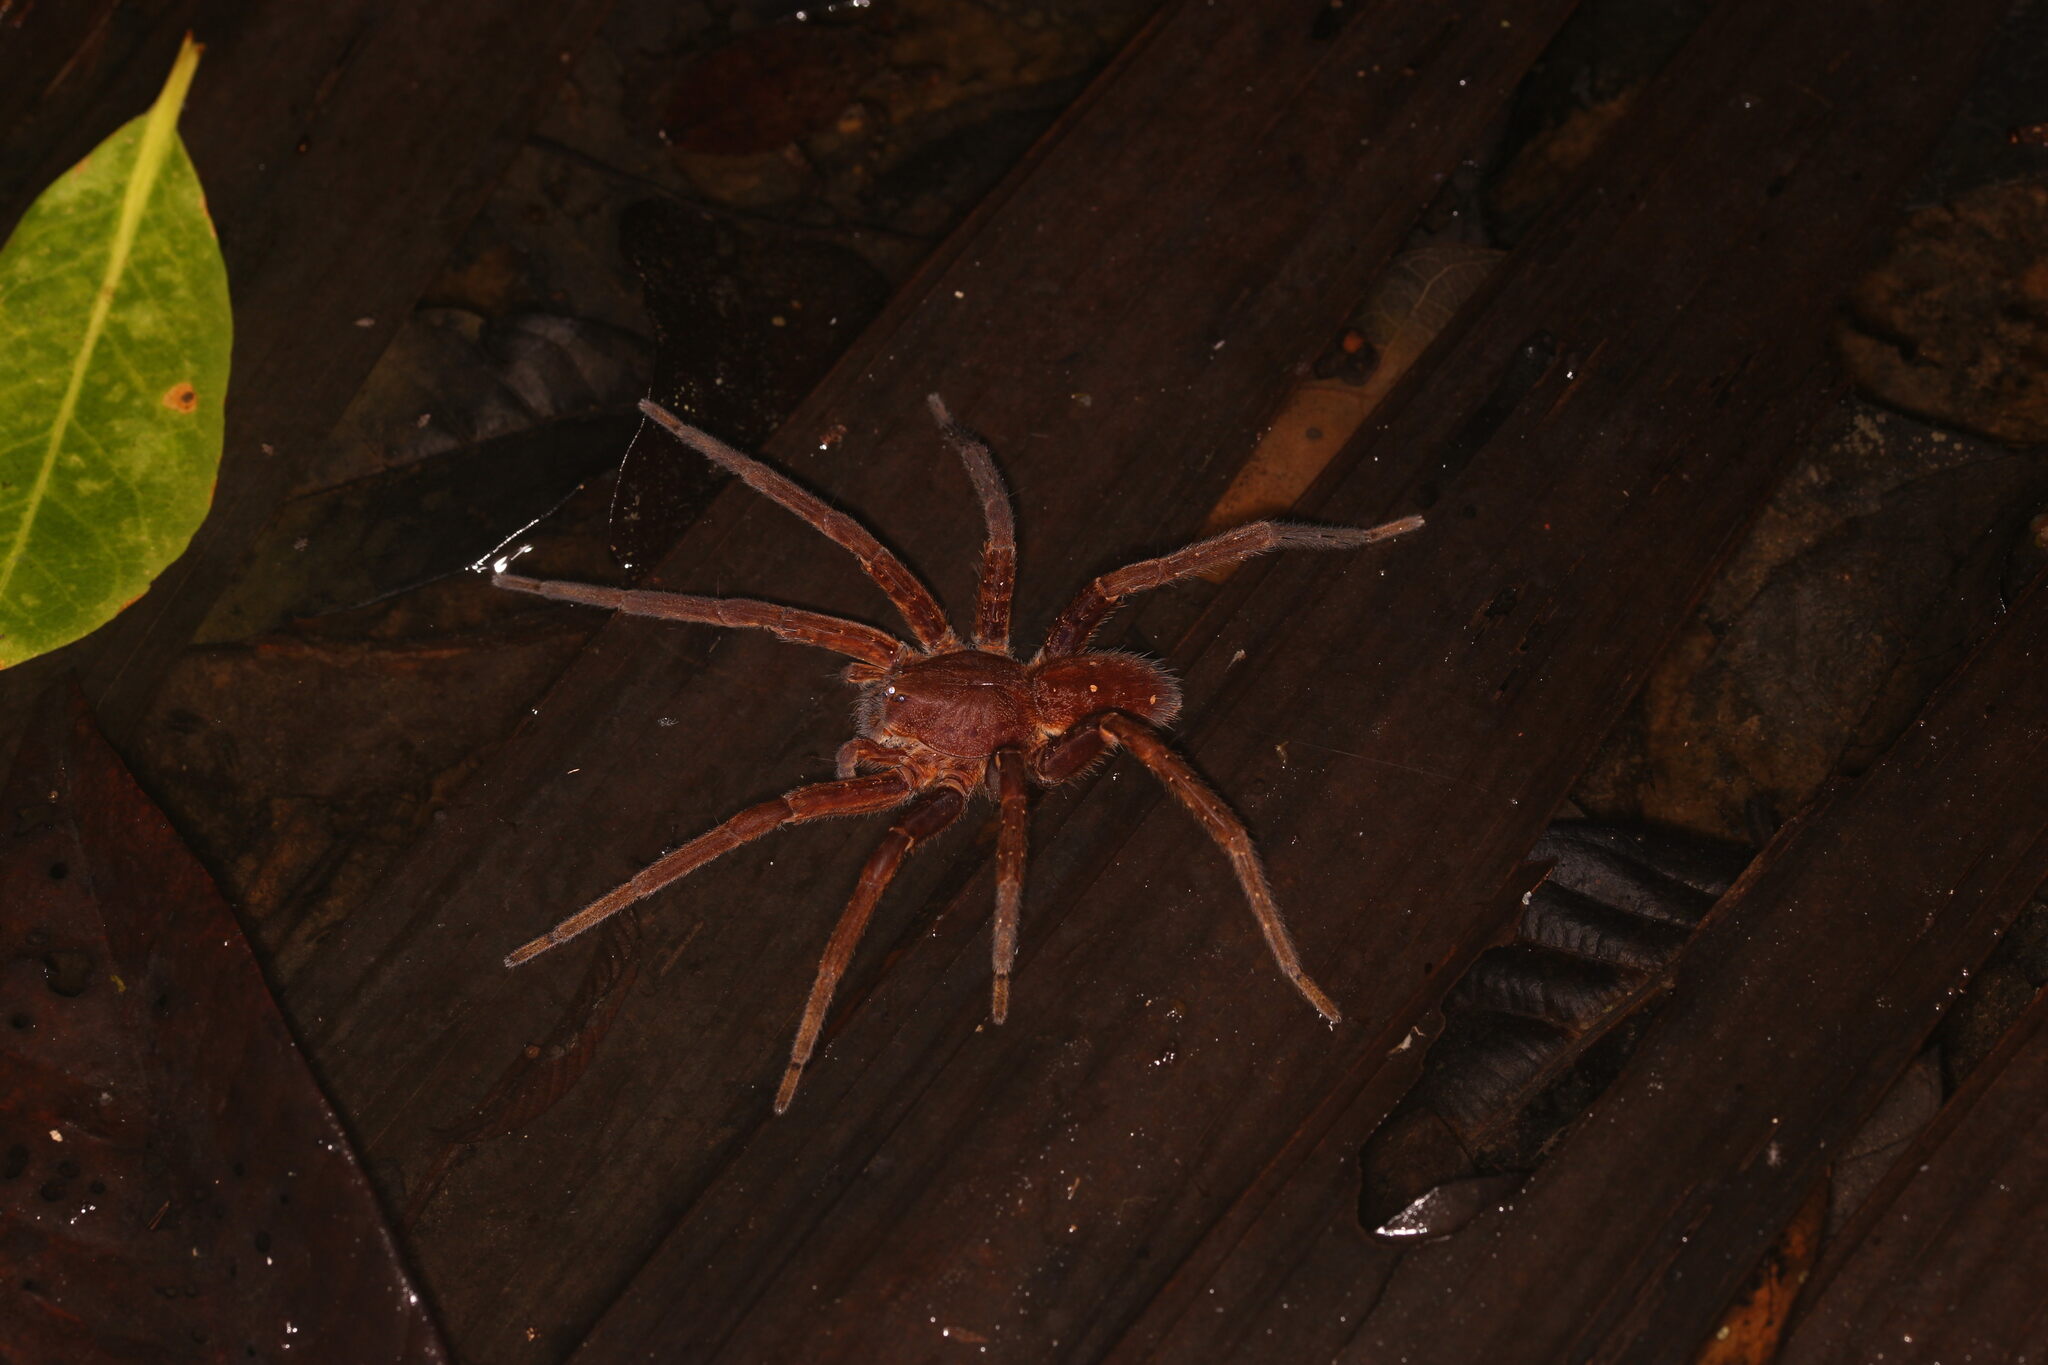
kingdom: Animalia
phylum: Arthropoda
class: Arachnida
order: Araneae
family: Ctenidae
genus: Ancylometes
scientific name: Ancylometes rufus
